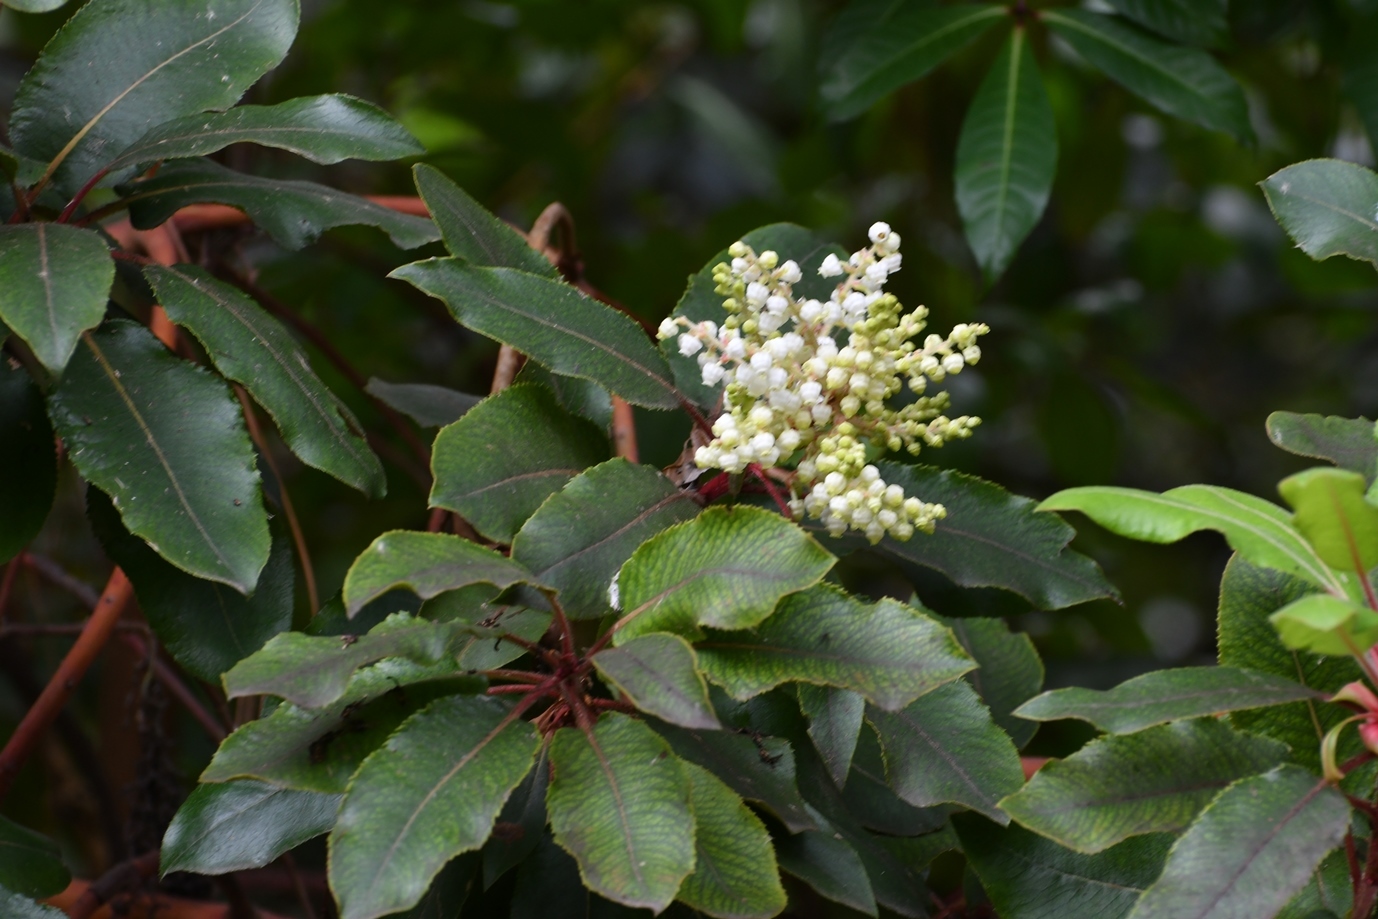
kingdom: Plantae
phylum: Tracheophyta
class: Magnoliopsida
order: Ericales
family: Ericaceae
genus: Arbutus
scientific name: Arbutus xalapensis
